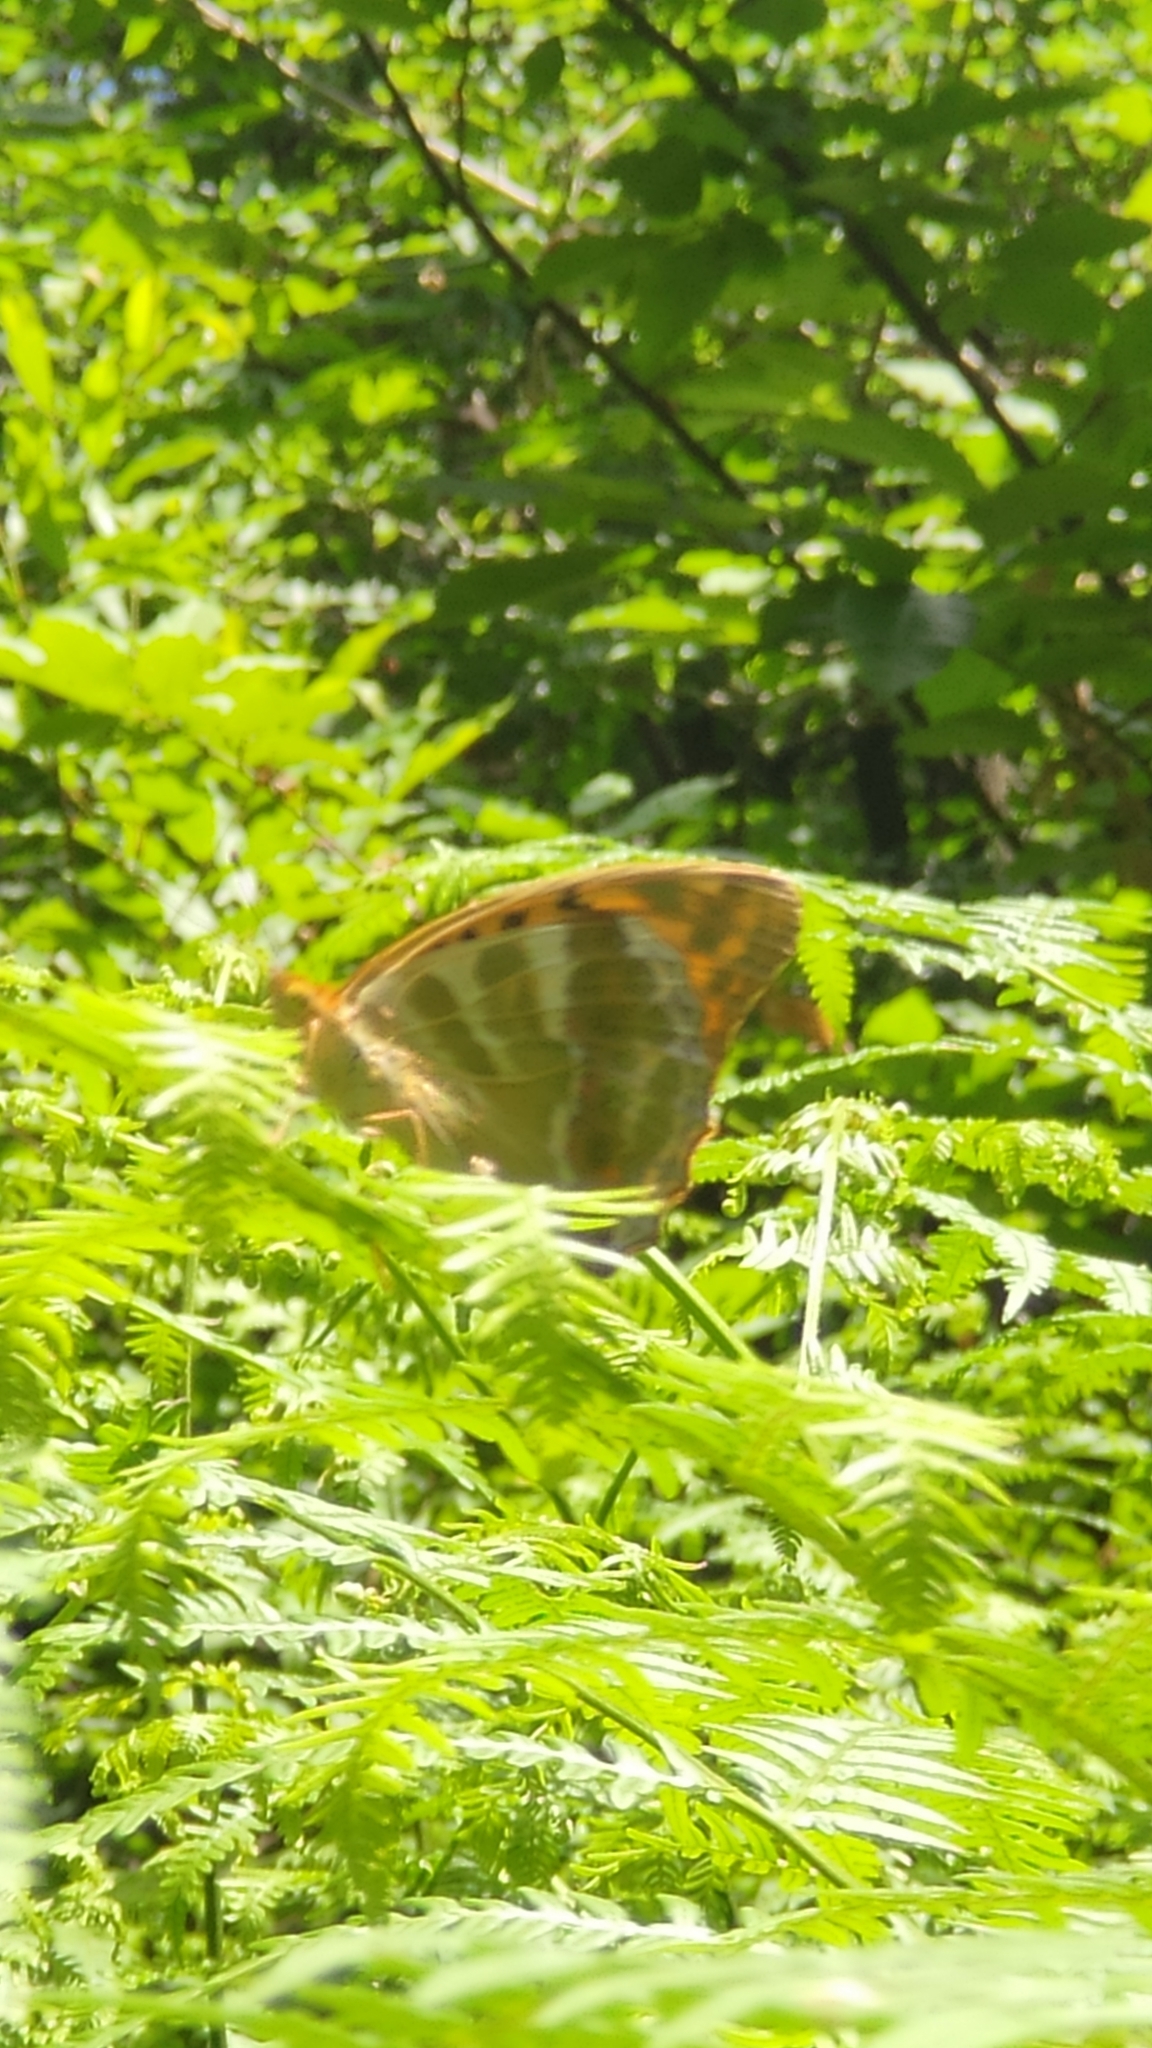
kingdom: Animalia
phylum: Arthropoda
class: Insecta
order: Lepidoptera
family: Nymphalidae
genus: Argynnis
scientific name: Argynnis paphia
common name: Silver-washed fritillary
